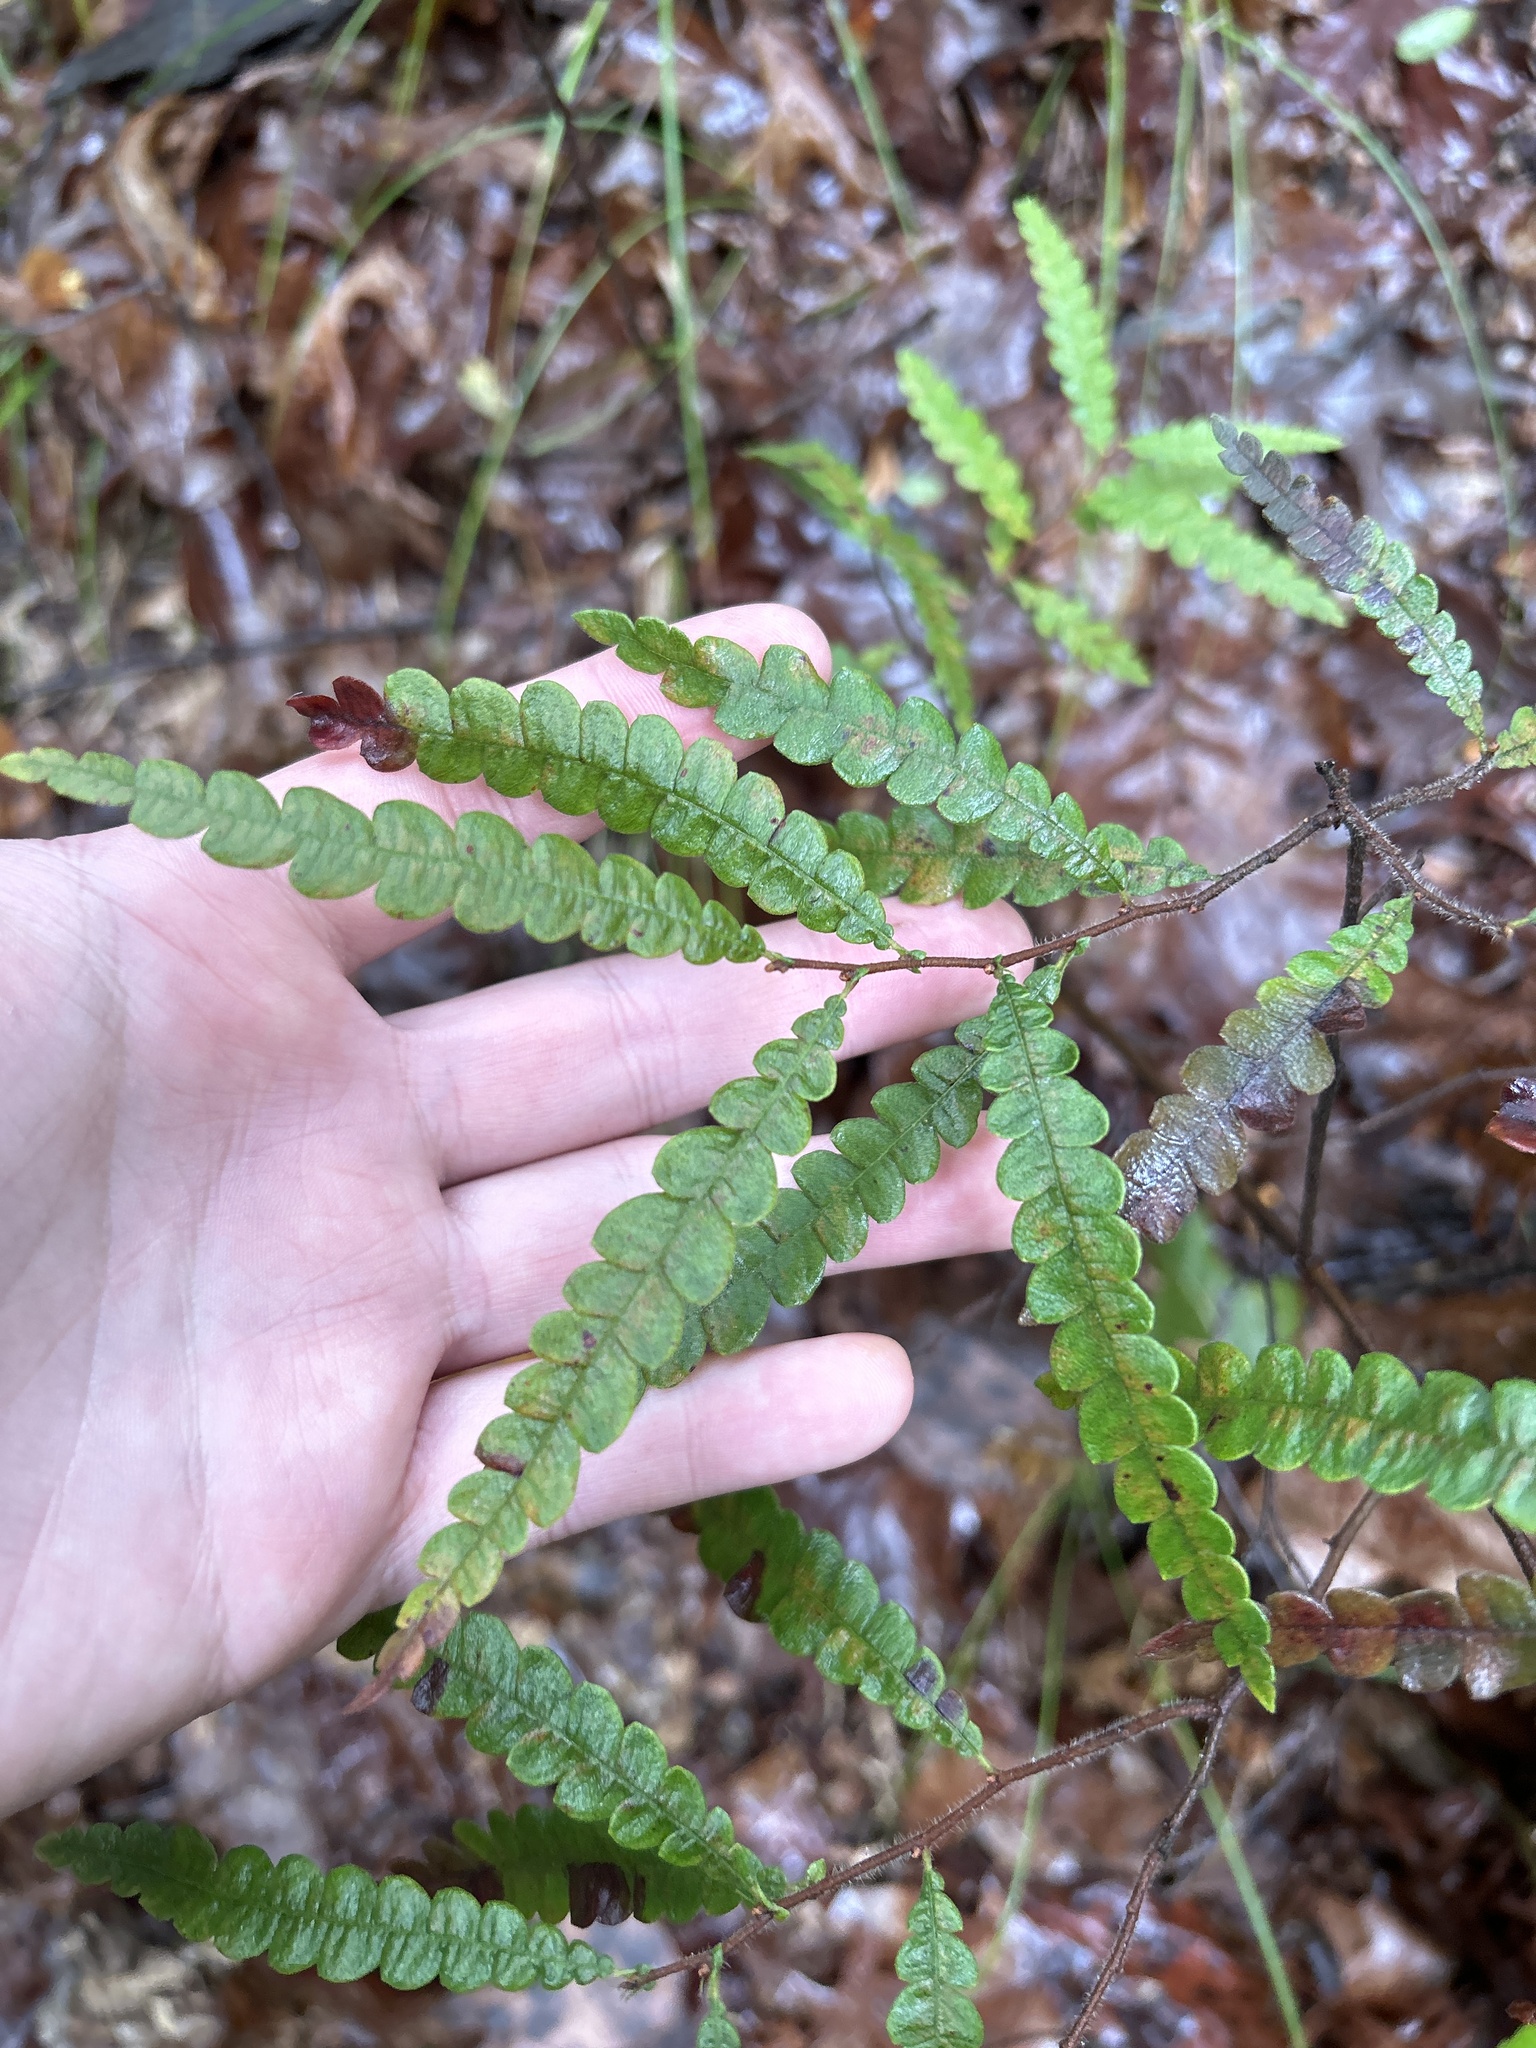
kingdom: Plantae
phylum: Tracheophyta
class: Magnoliopsida
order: Fagales
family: Myricaceae
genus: Comptonia
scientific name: Comptonia peregrina
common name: Sweet-fern
